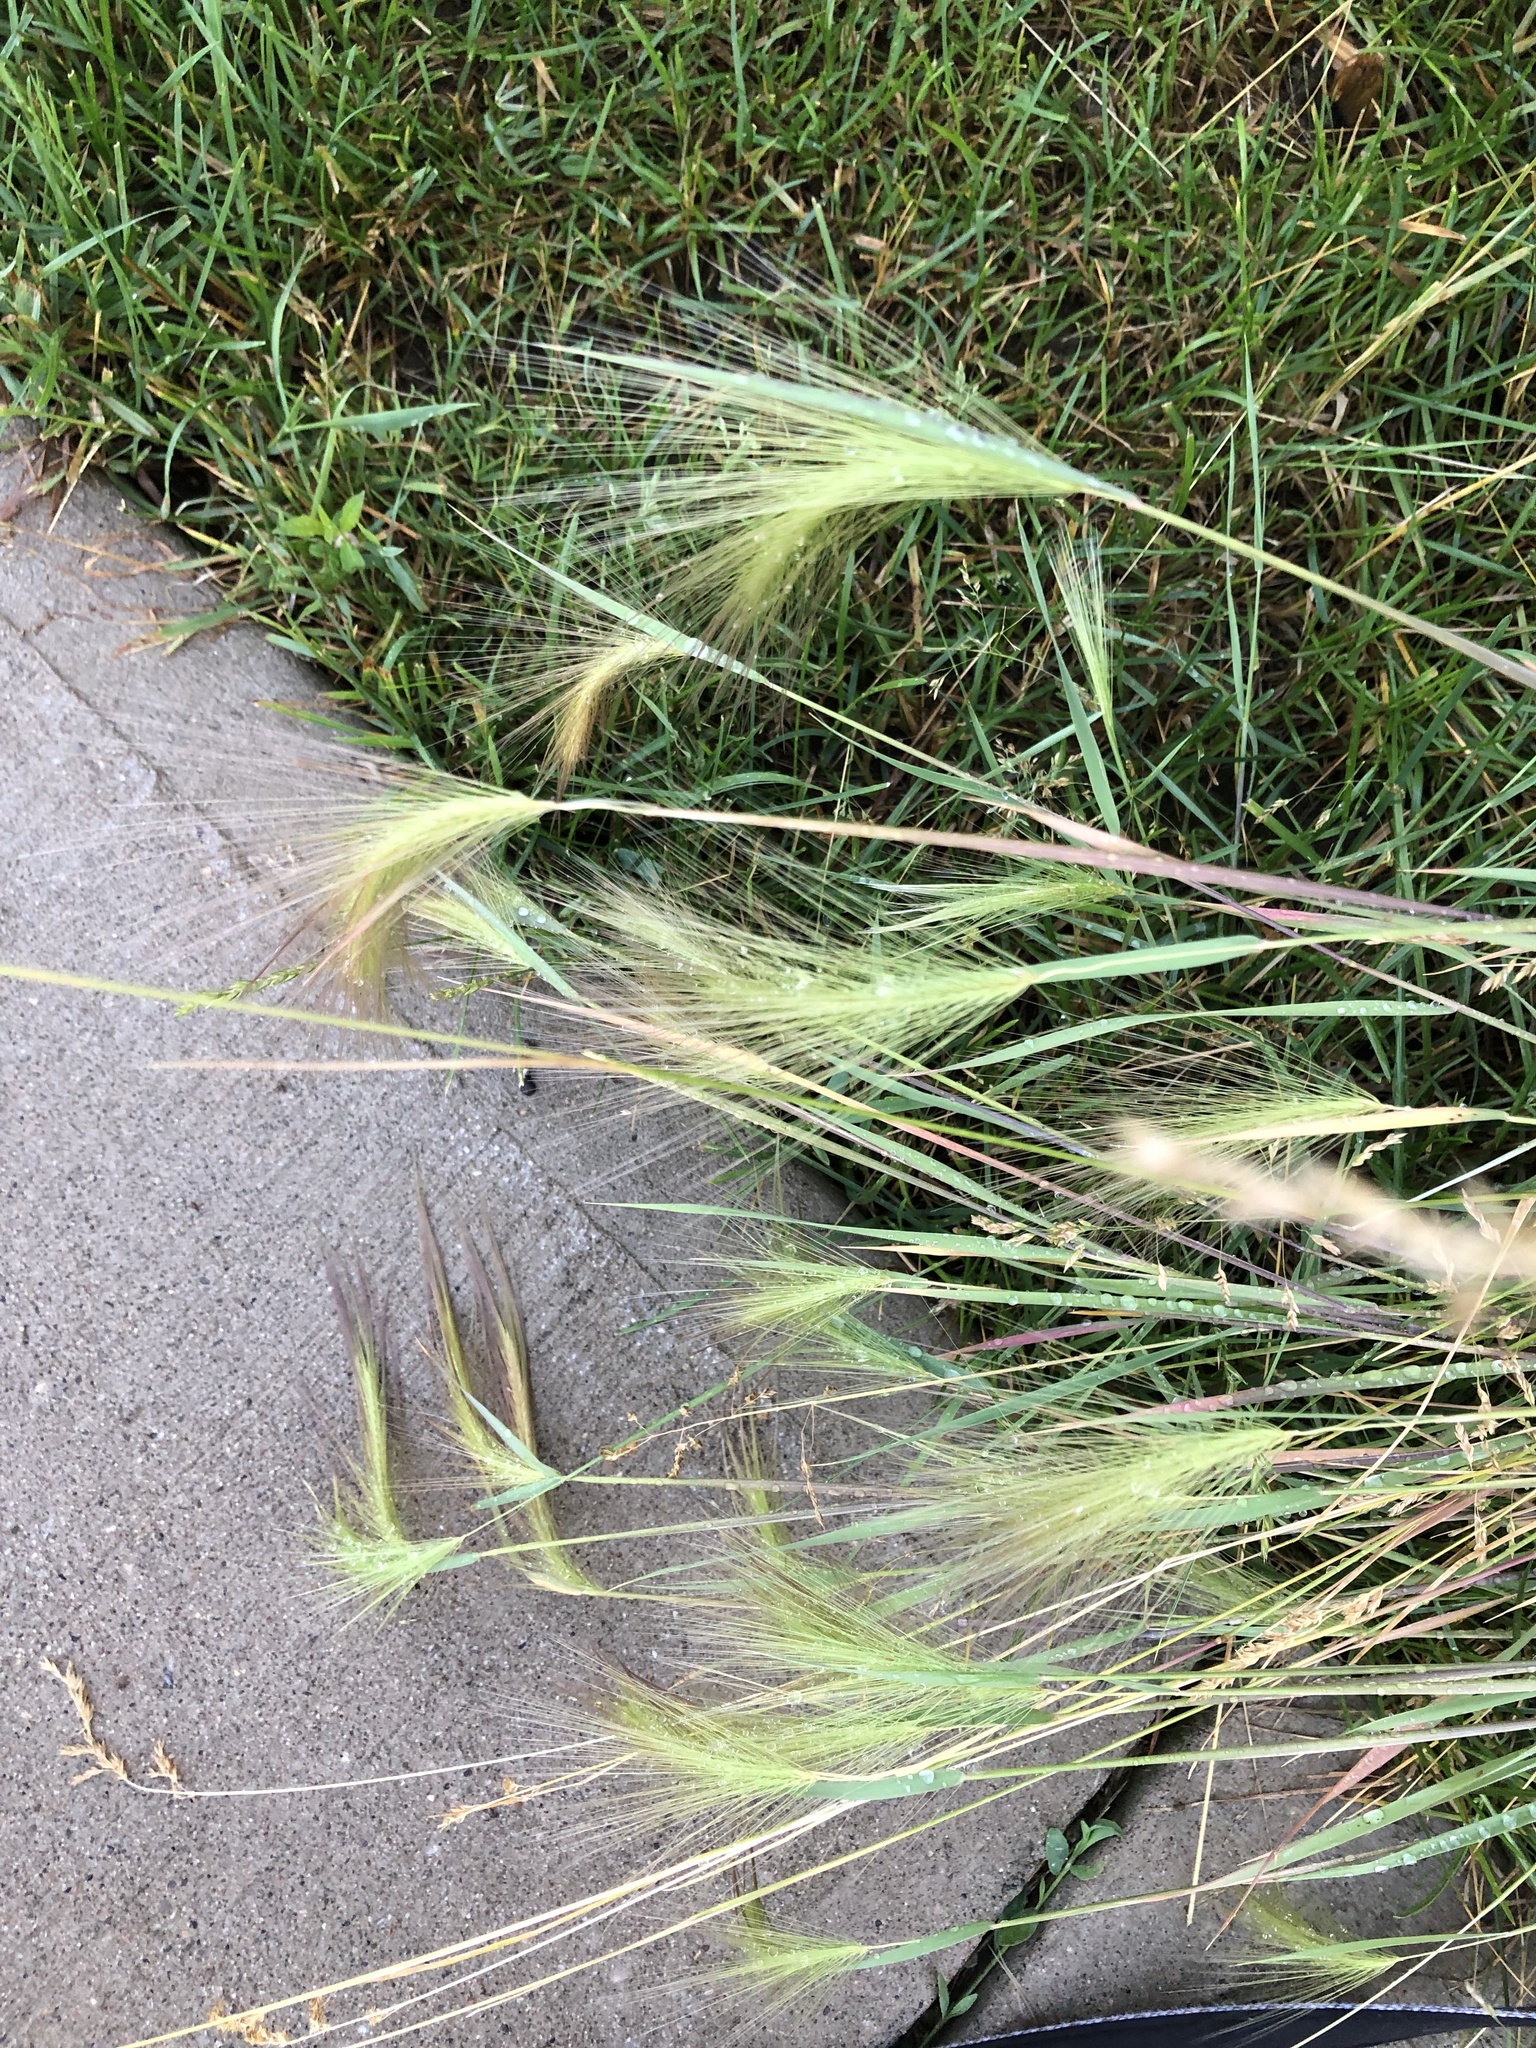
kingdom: Plantae
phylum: Tracheophyta
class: Liliopsida
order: Poales
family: Poaceae
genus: Hordeum
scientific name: Hordeum jubatum
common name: Foxtail barley
